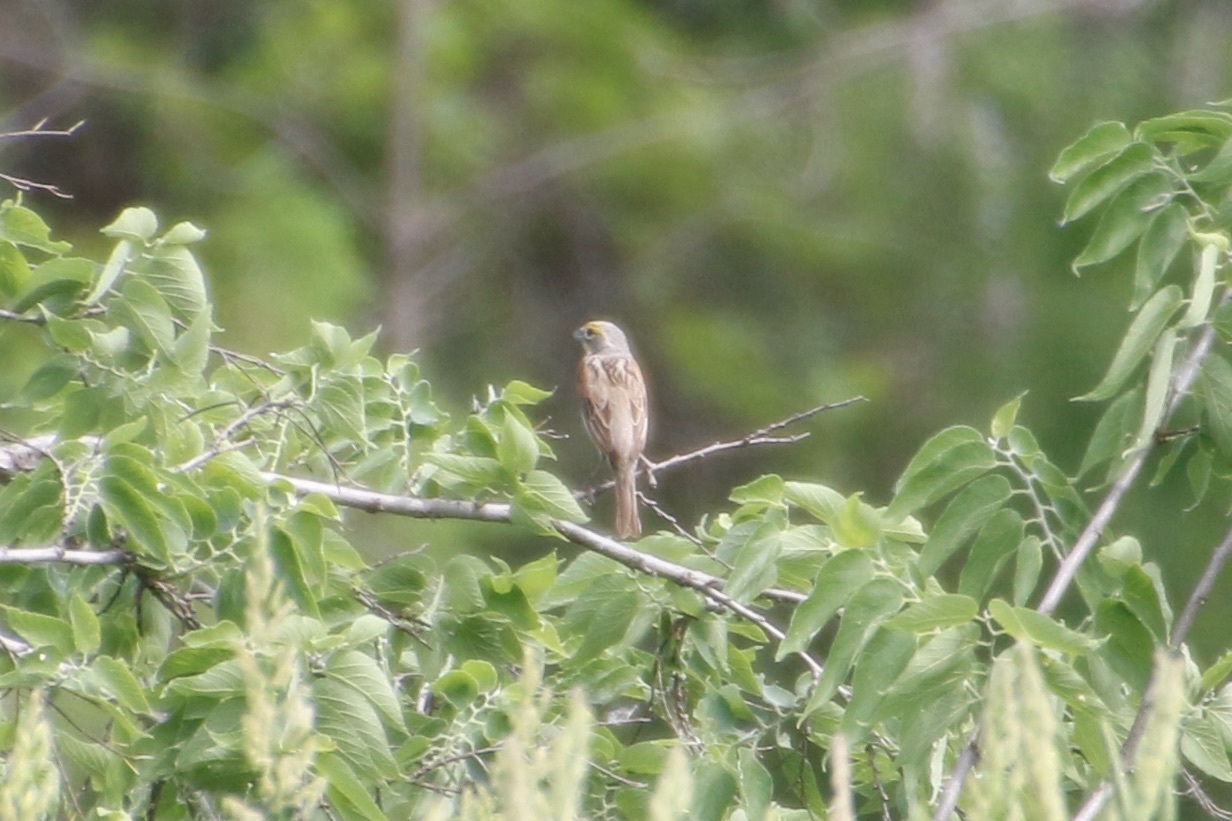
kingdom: Animalia
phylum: Chordata
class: Aves
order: Passeriformes
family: Cardinalidae
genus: Spiza
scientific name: Spiza americana
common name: Dickcissel
